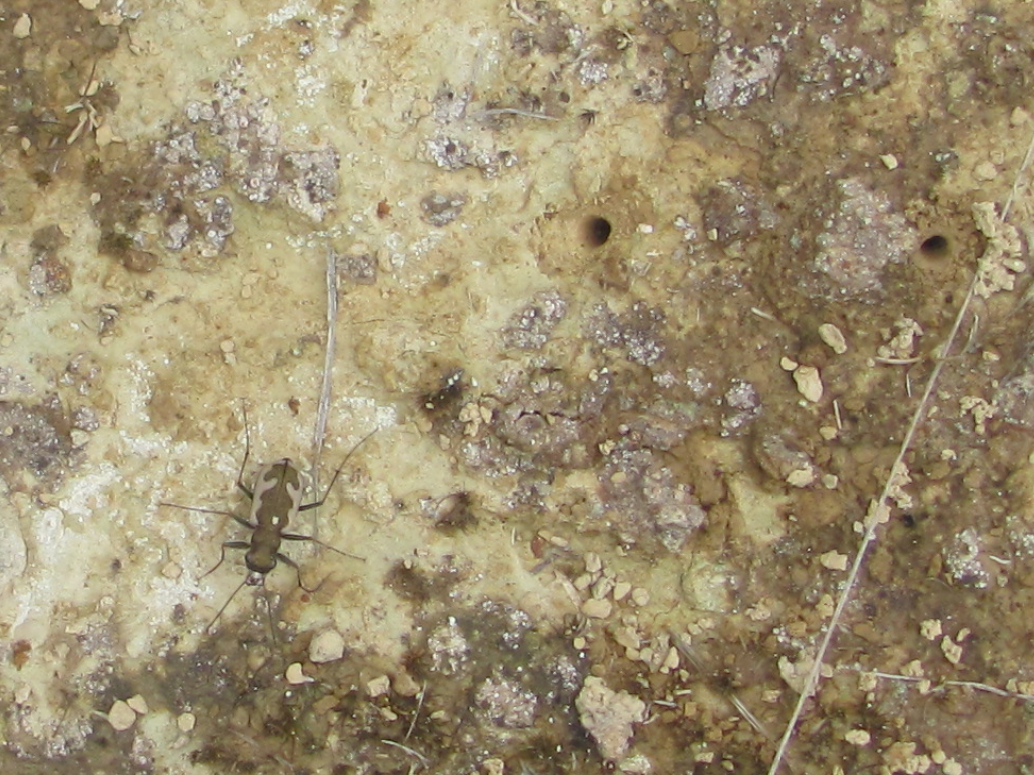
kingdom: Animalia
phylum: Arthropoda
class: Insecta
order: Coleoptera
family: Carabidae
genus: Neocicindela
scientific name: Neocicindela latecincta
